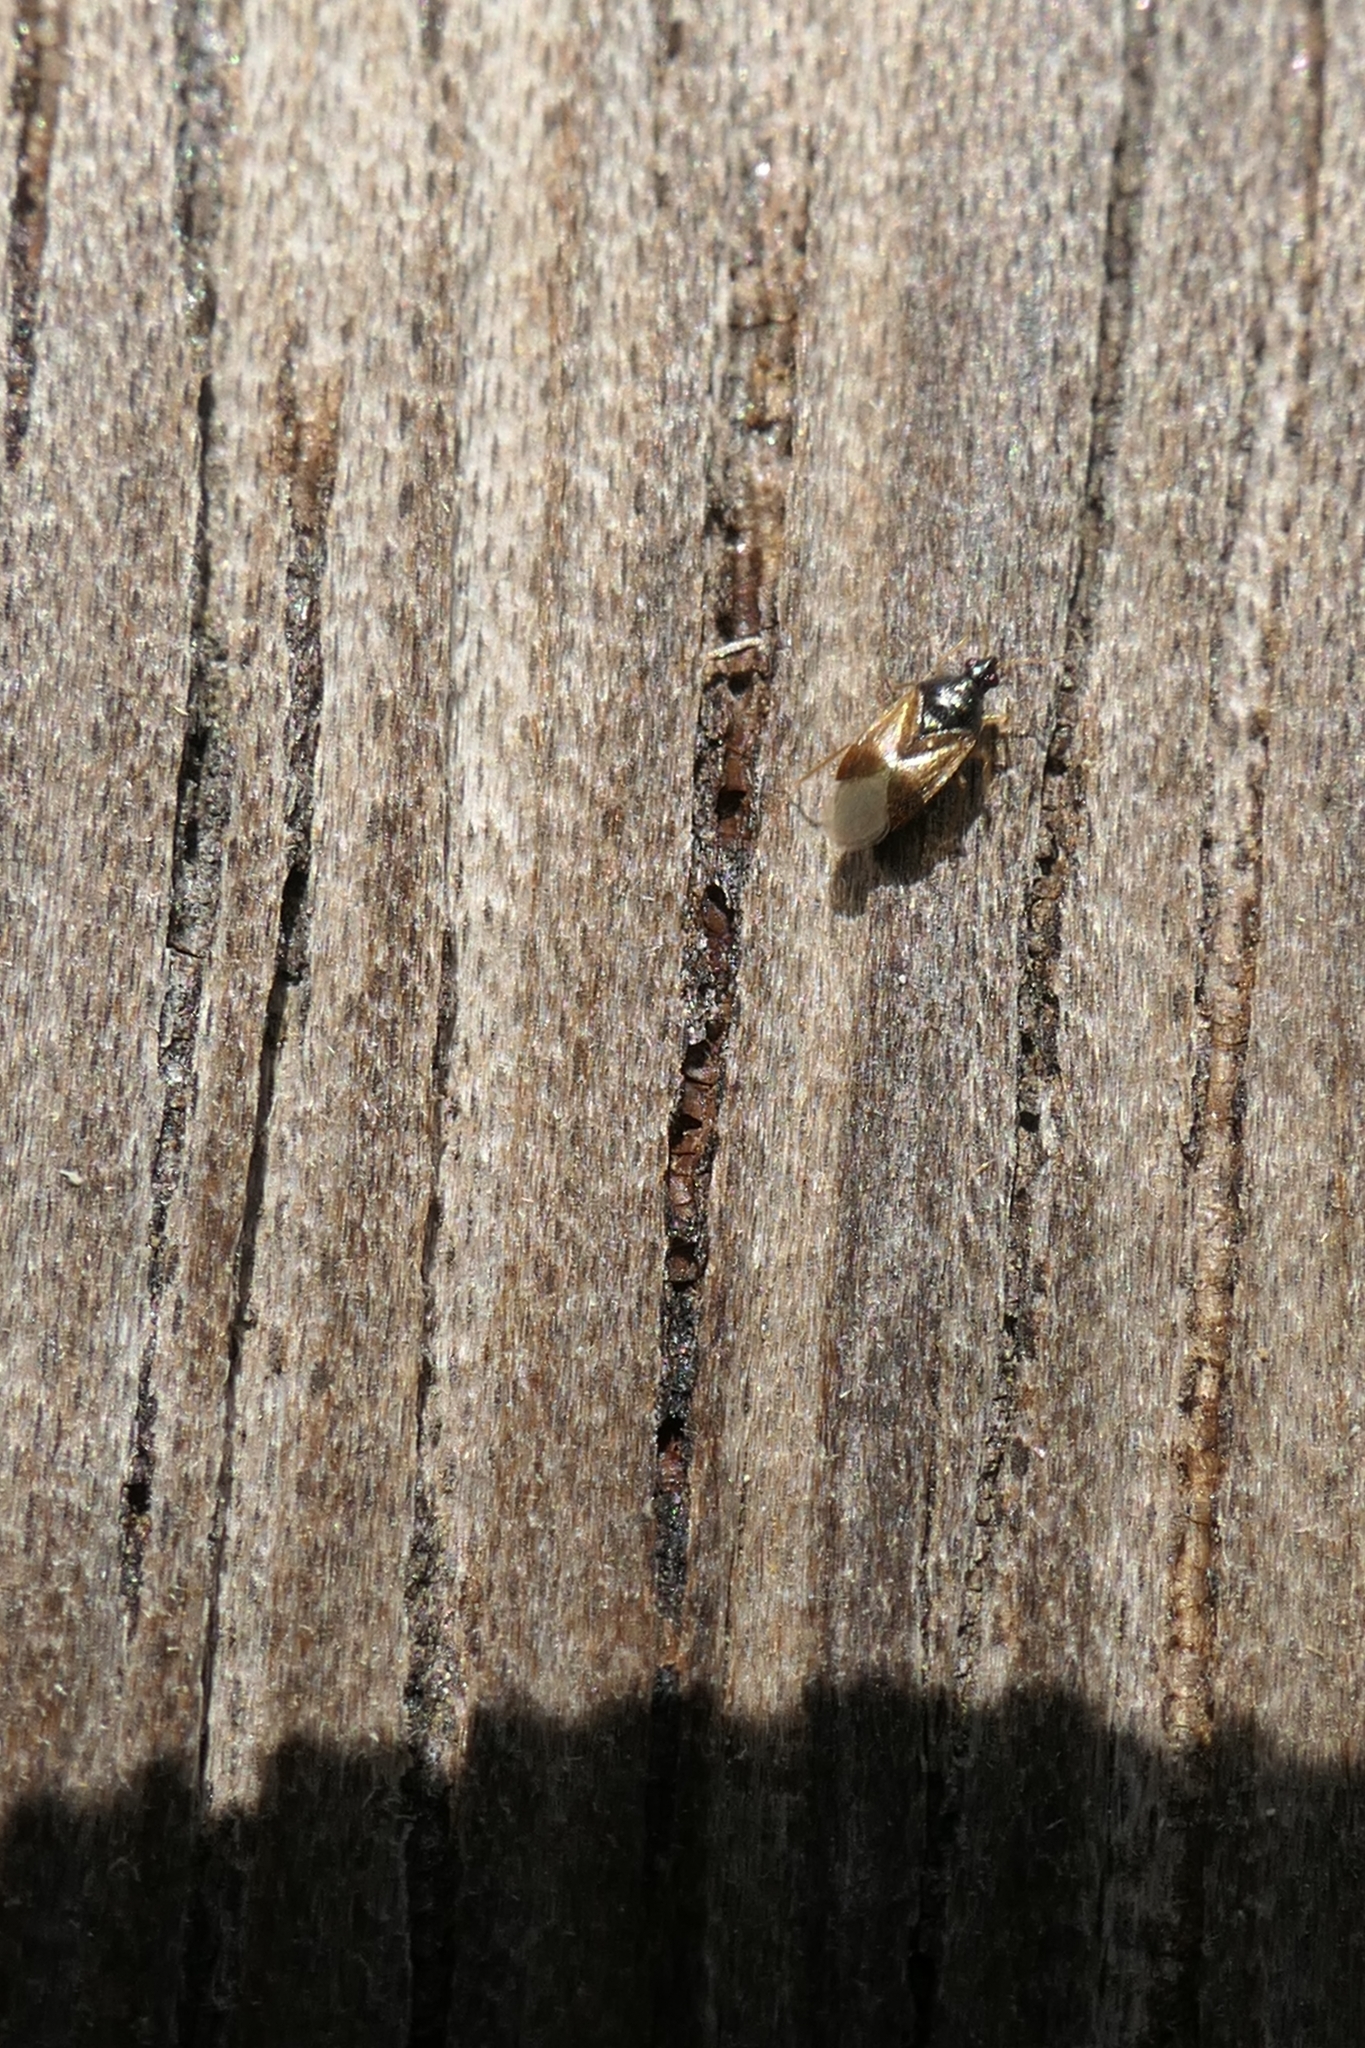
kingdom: Animalia
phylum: Arthropoda
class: Insecta
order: Hemiptera
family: Anthocoridae
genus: Orius
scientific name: Orius vicinus
